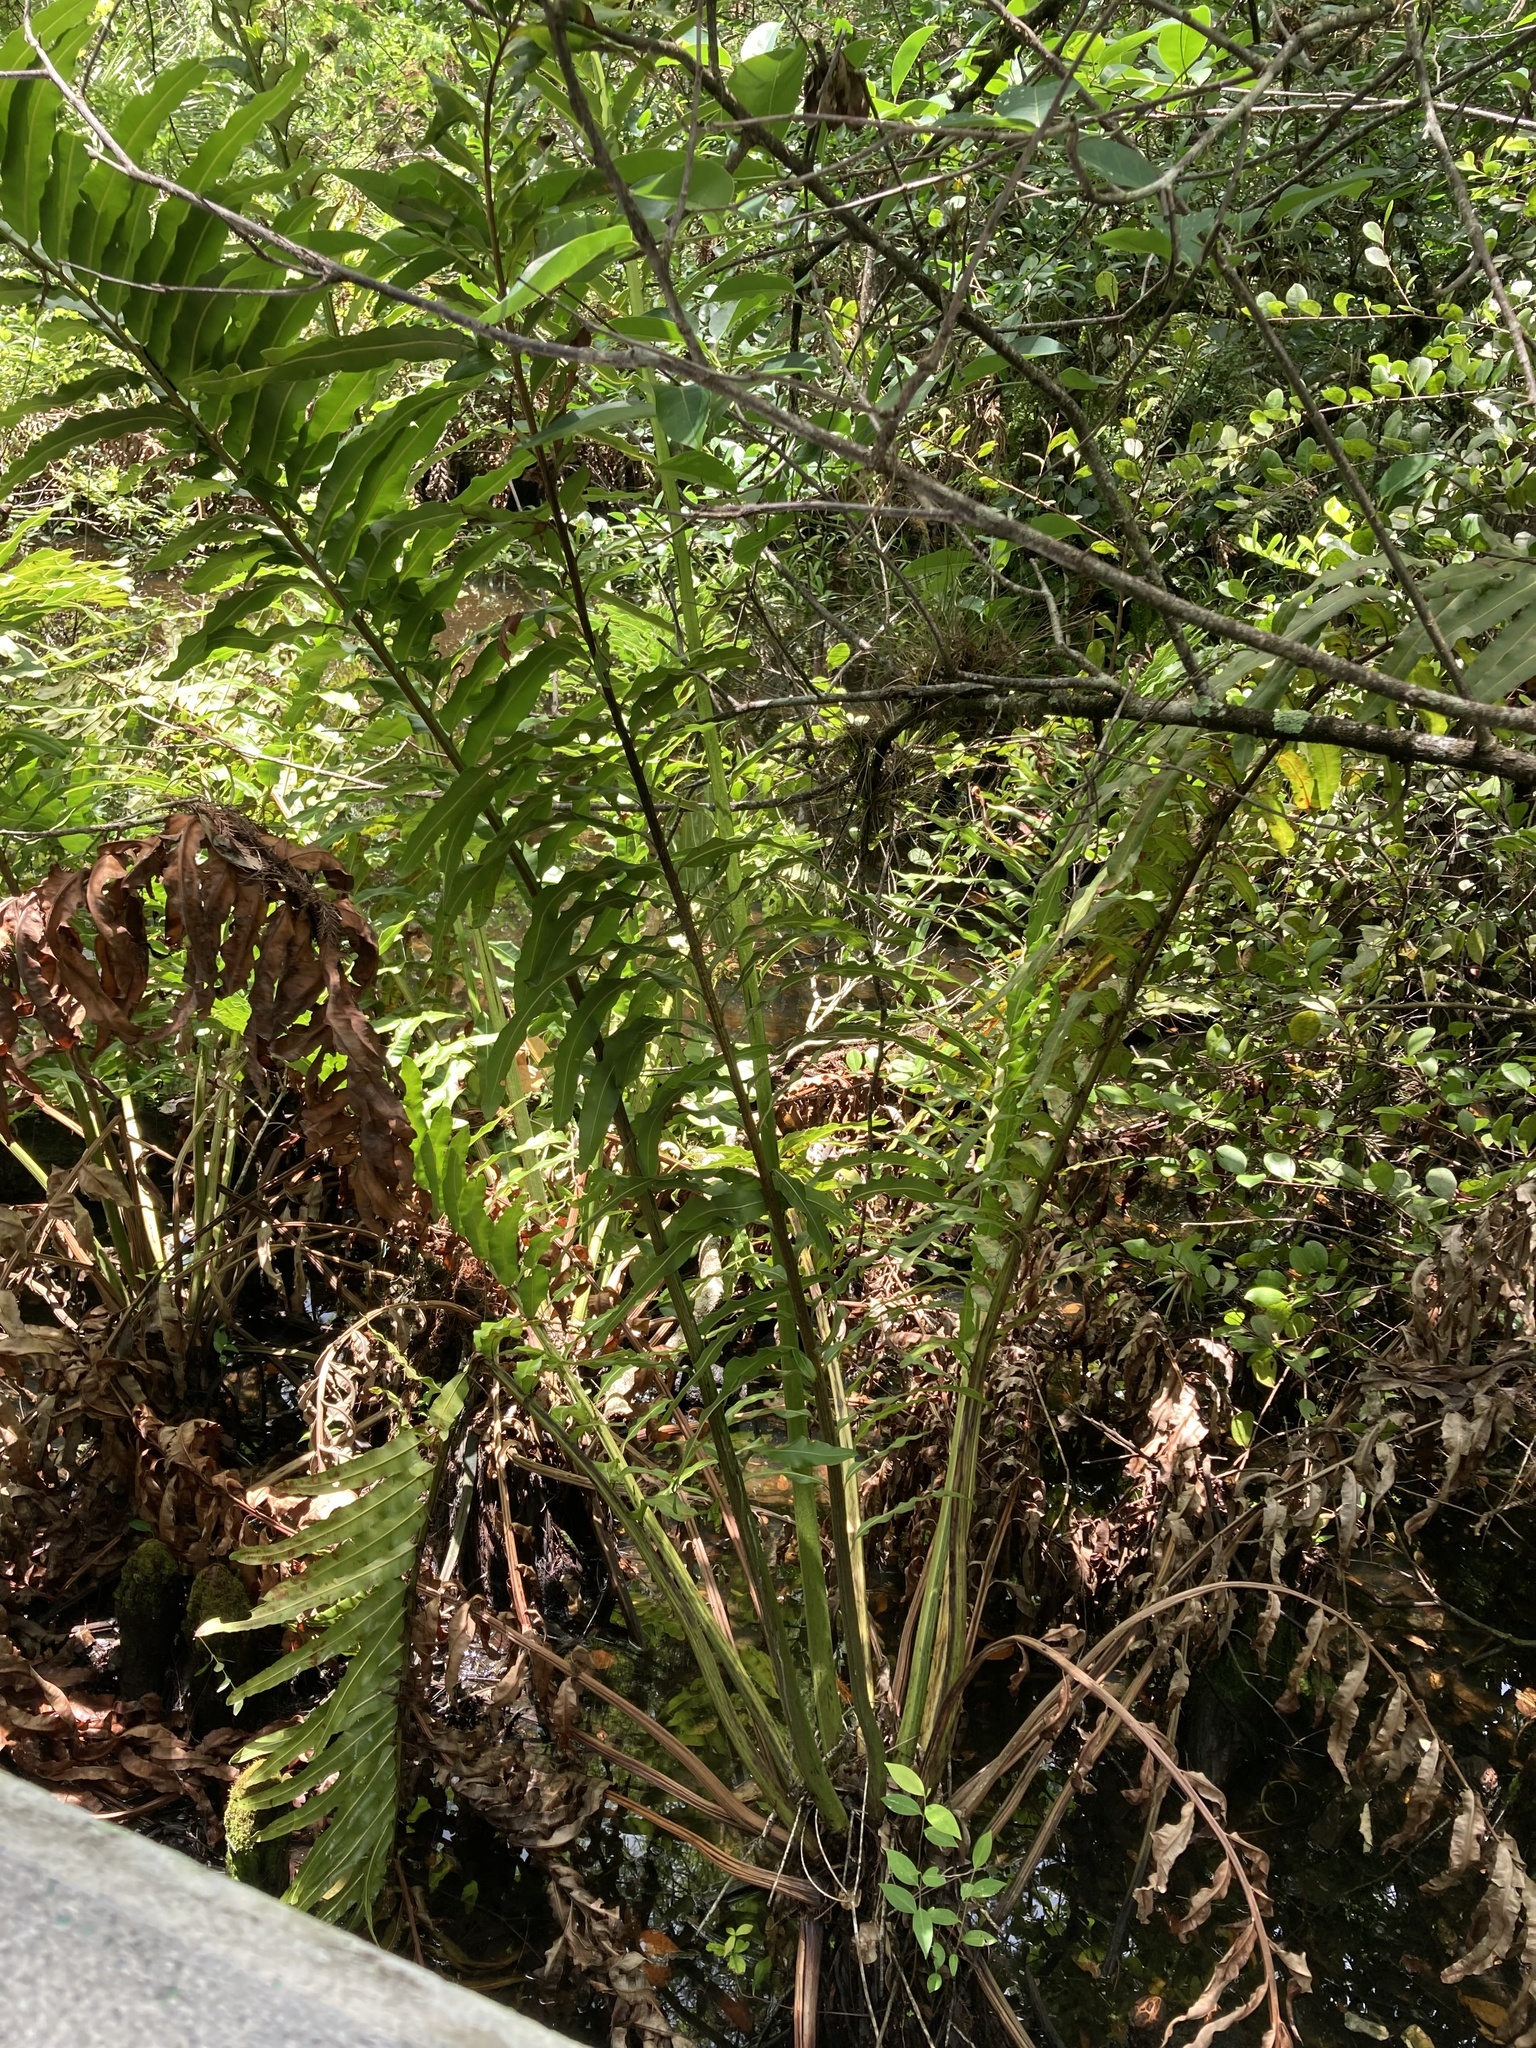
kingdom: Plantae
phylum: Tracheophyta
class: Polypodiopsida
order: Polypodiales
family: Pteridaceae
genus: Acrostichum
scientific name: Acrostichum danaeifolium
